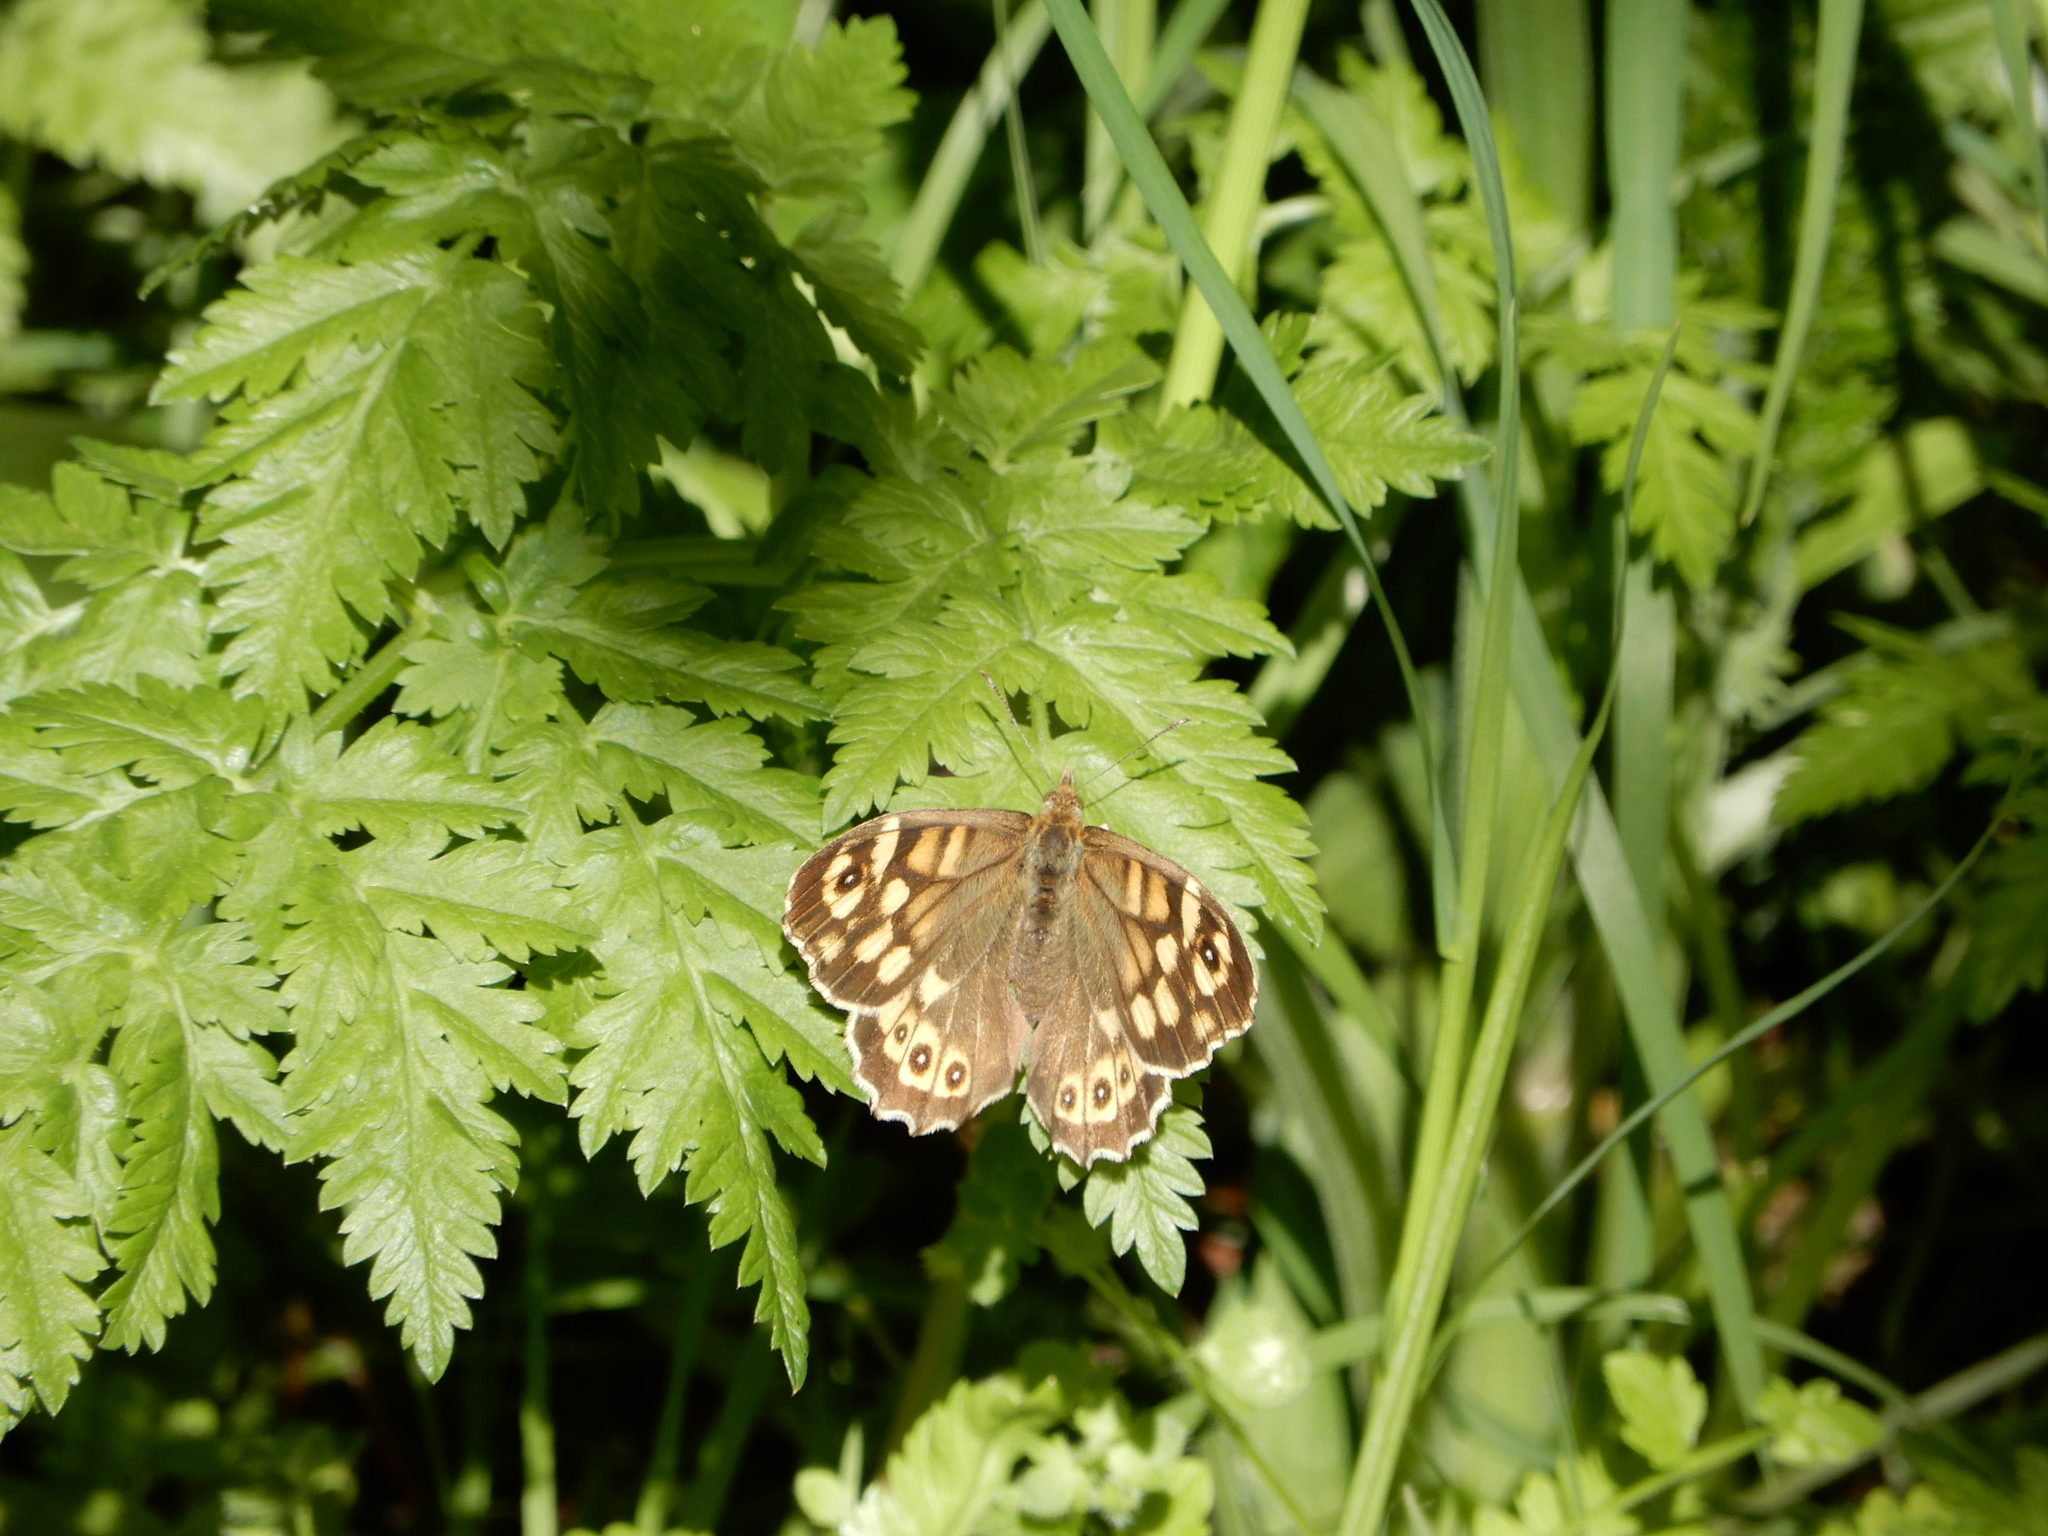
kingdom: Animalia
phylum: Arthropoda
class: Insecta
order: Lepidoptera
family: Nymphalidae
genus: Pararge
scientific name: Pararge aegeria
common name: Speckled wood
